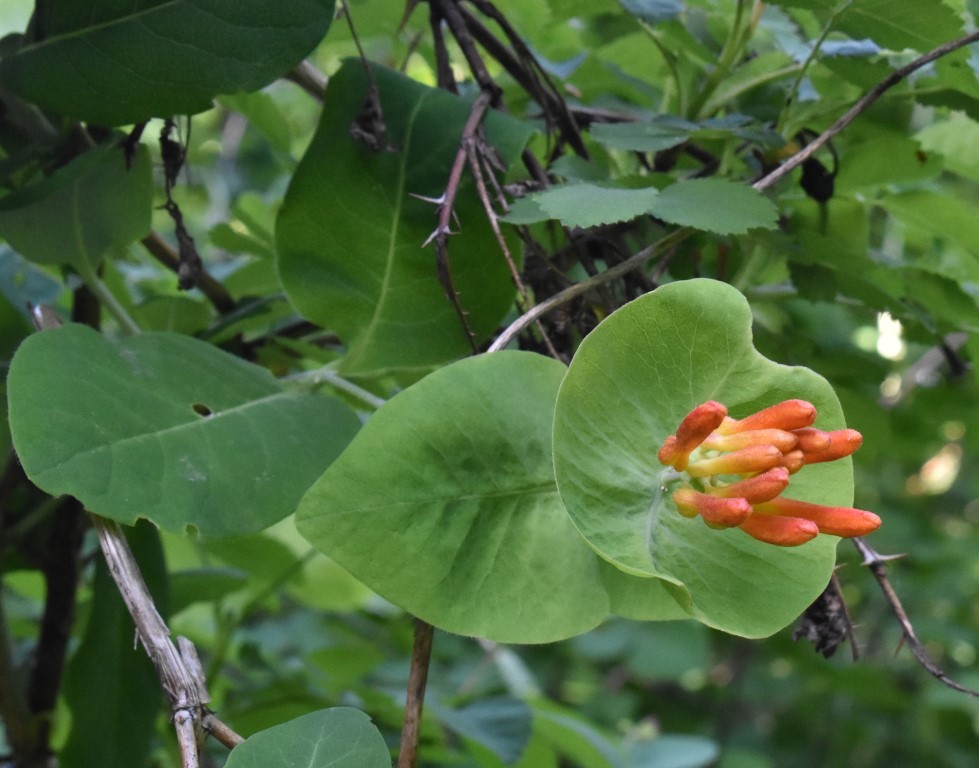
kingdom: Plantae
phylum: Tracheophyta
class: Magnoliopsida
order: Dipsacales
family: Caprifoliaceae
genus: Lonicera
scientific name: Lonicera ciliosa
